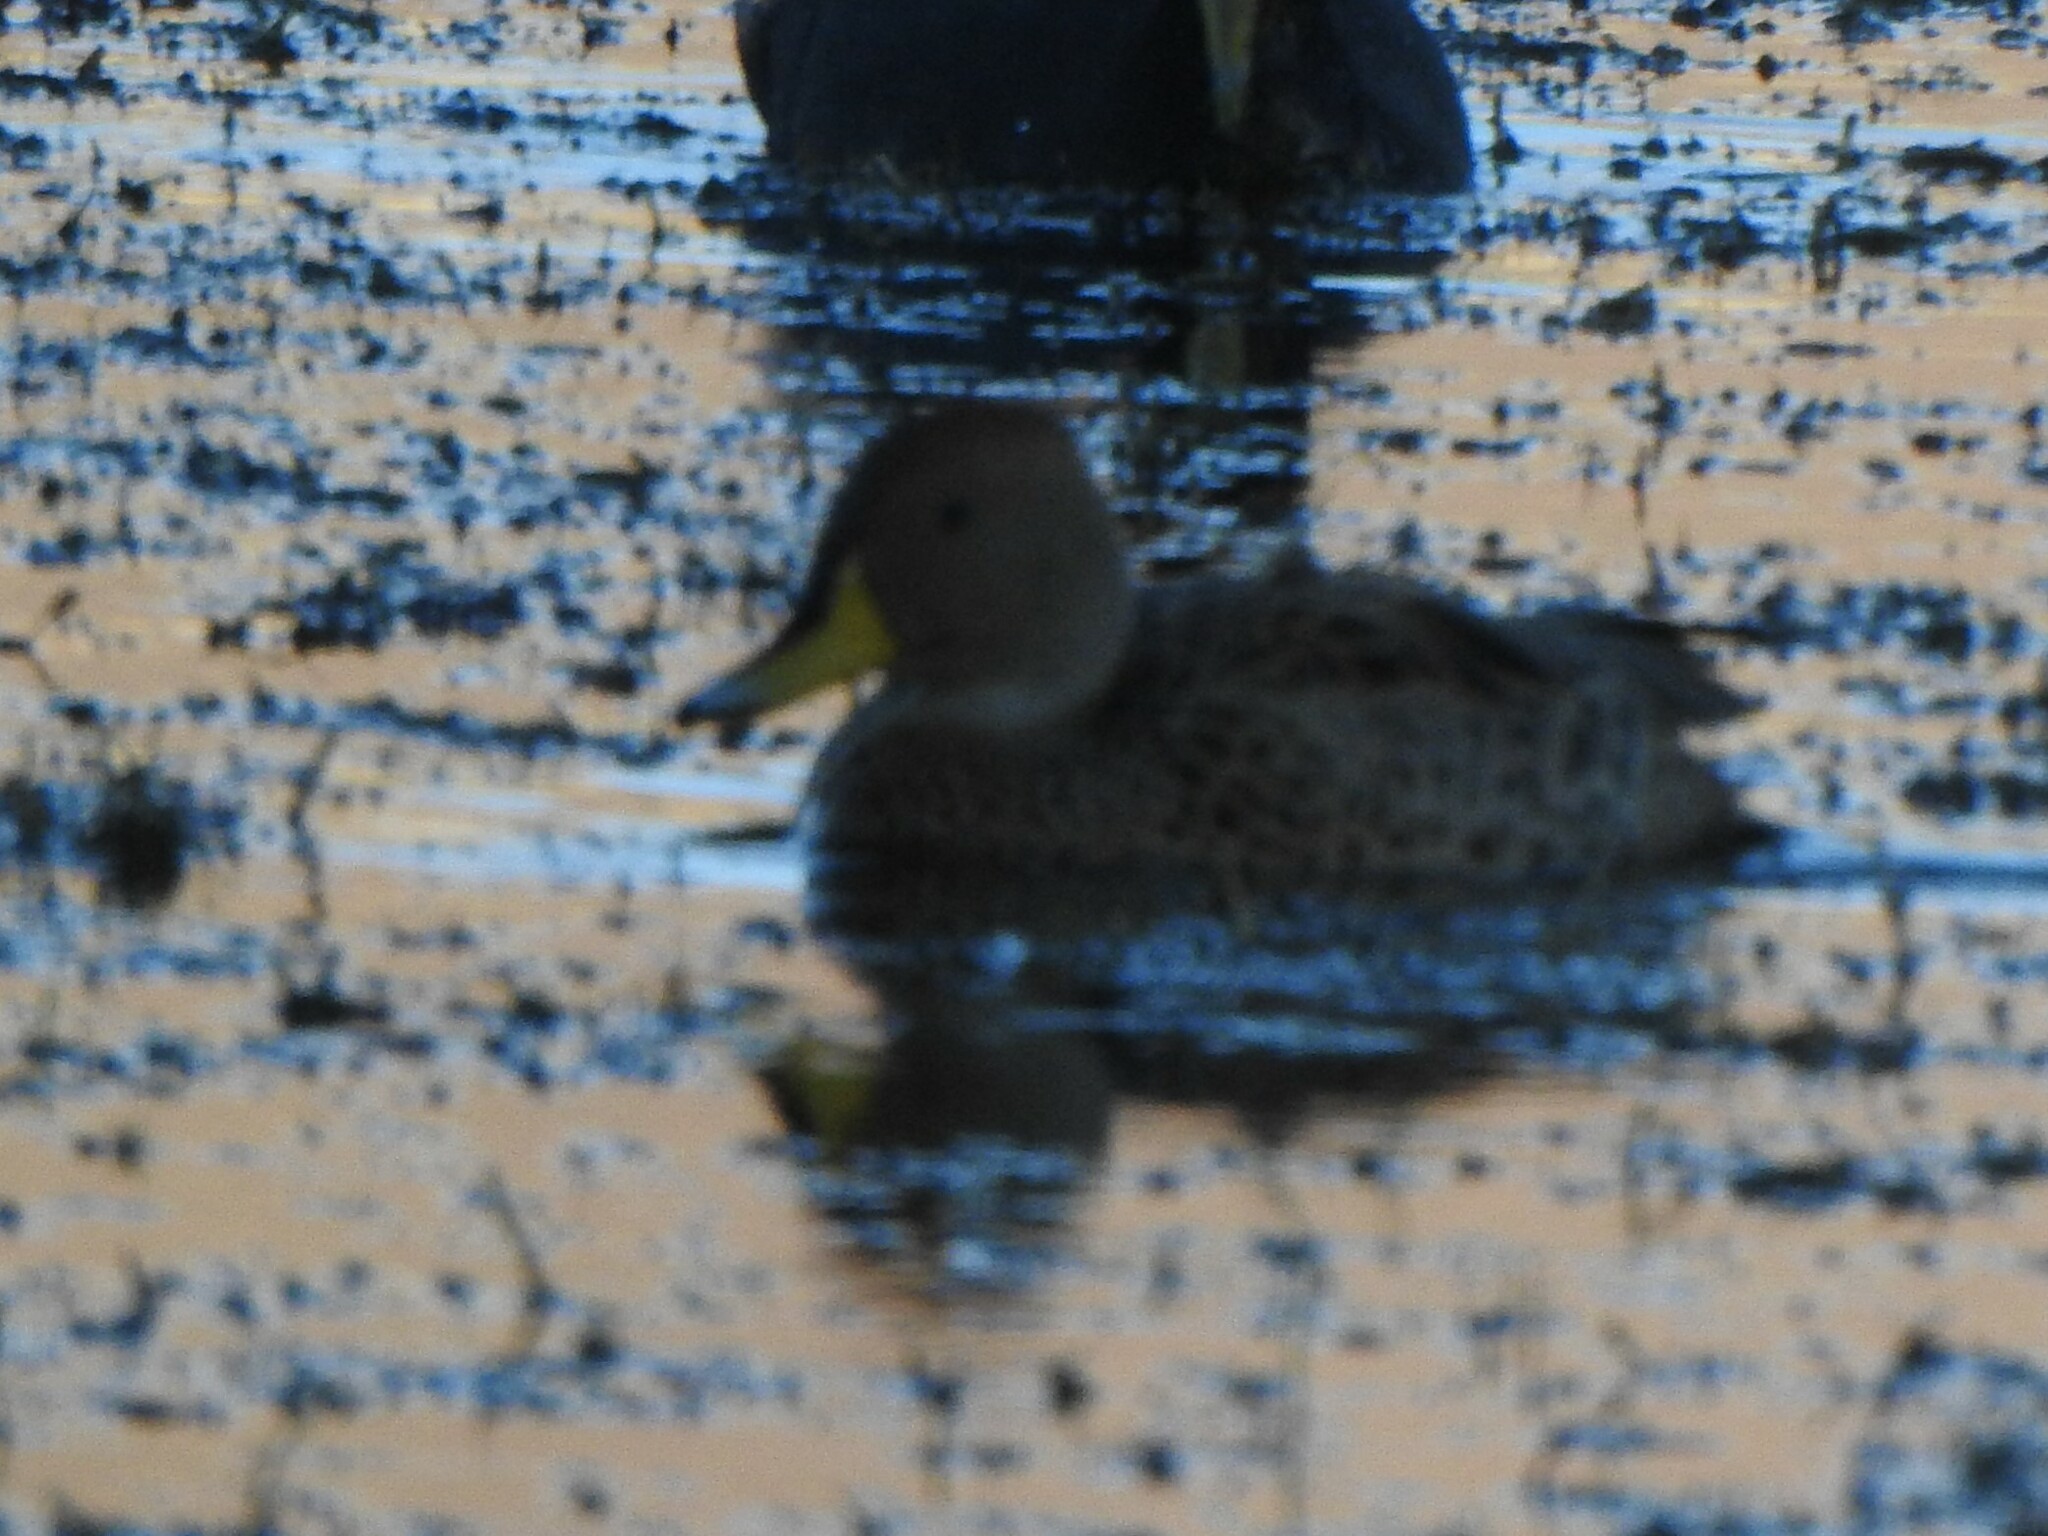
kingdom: Animalia
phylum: Chordata
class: Aves
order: Anseriformes
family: Anatidae
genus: Anas
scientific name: Anas georgica
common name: Yellow-billed pintail
